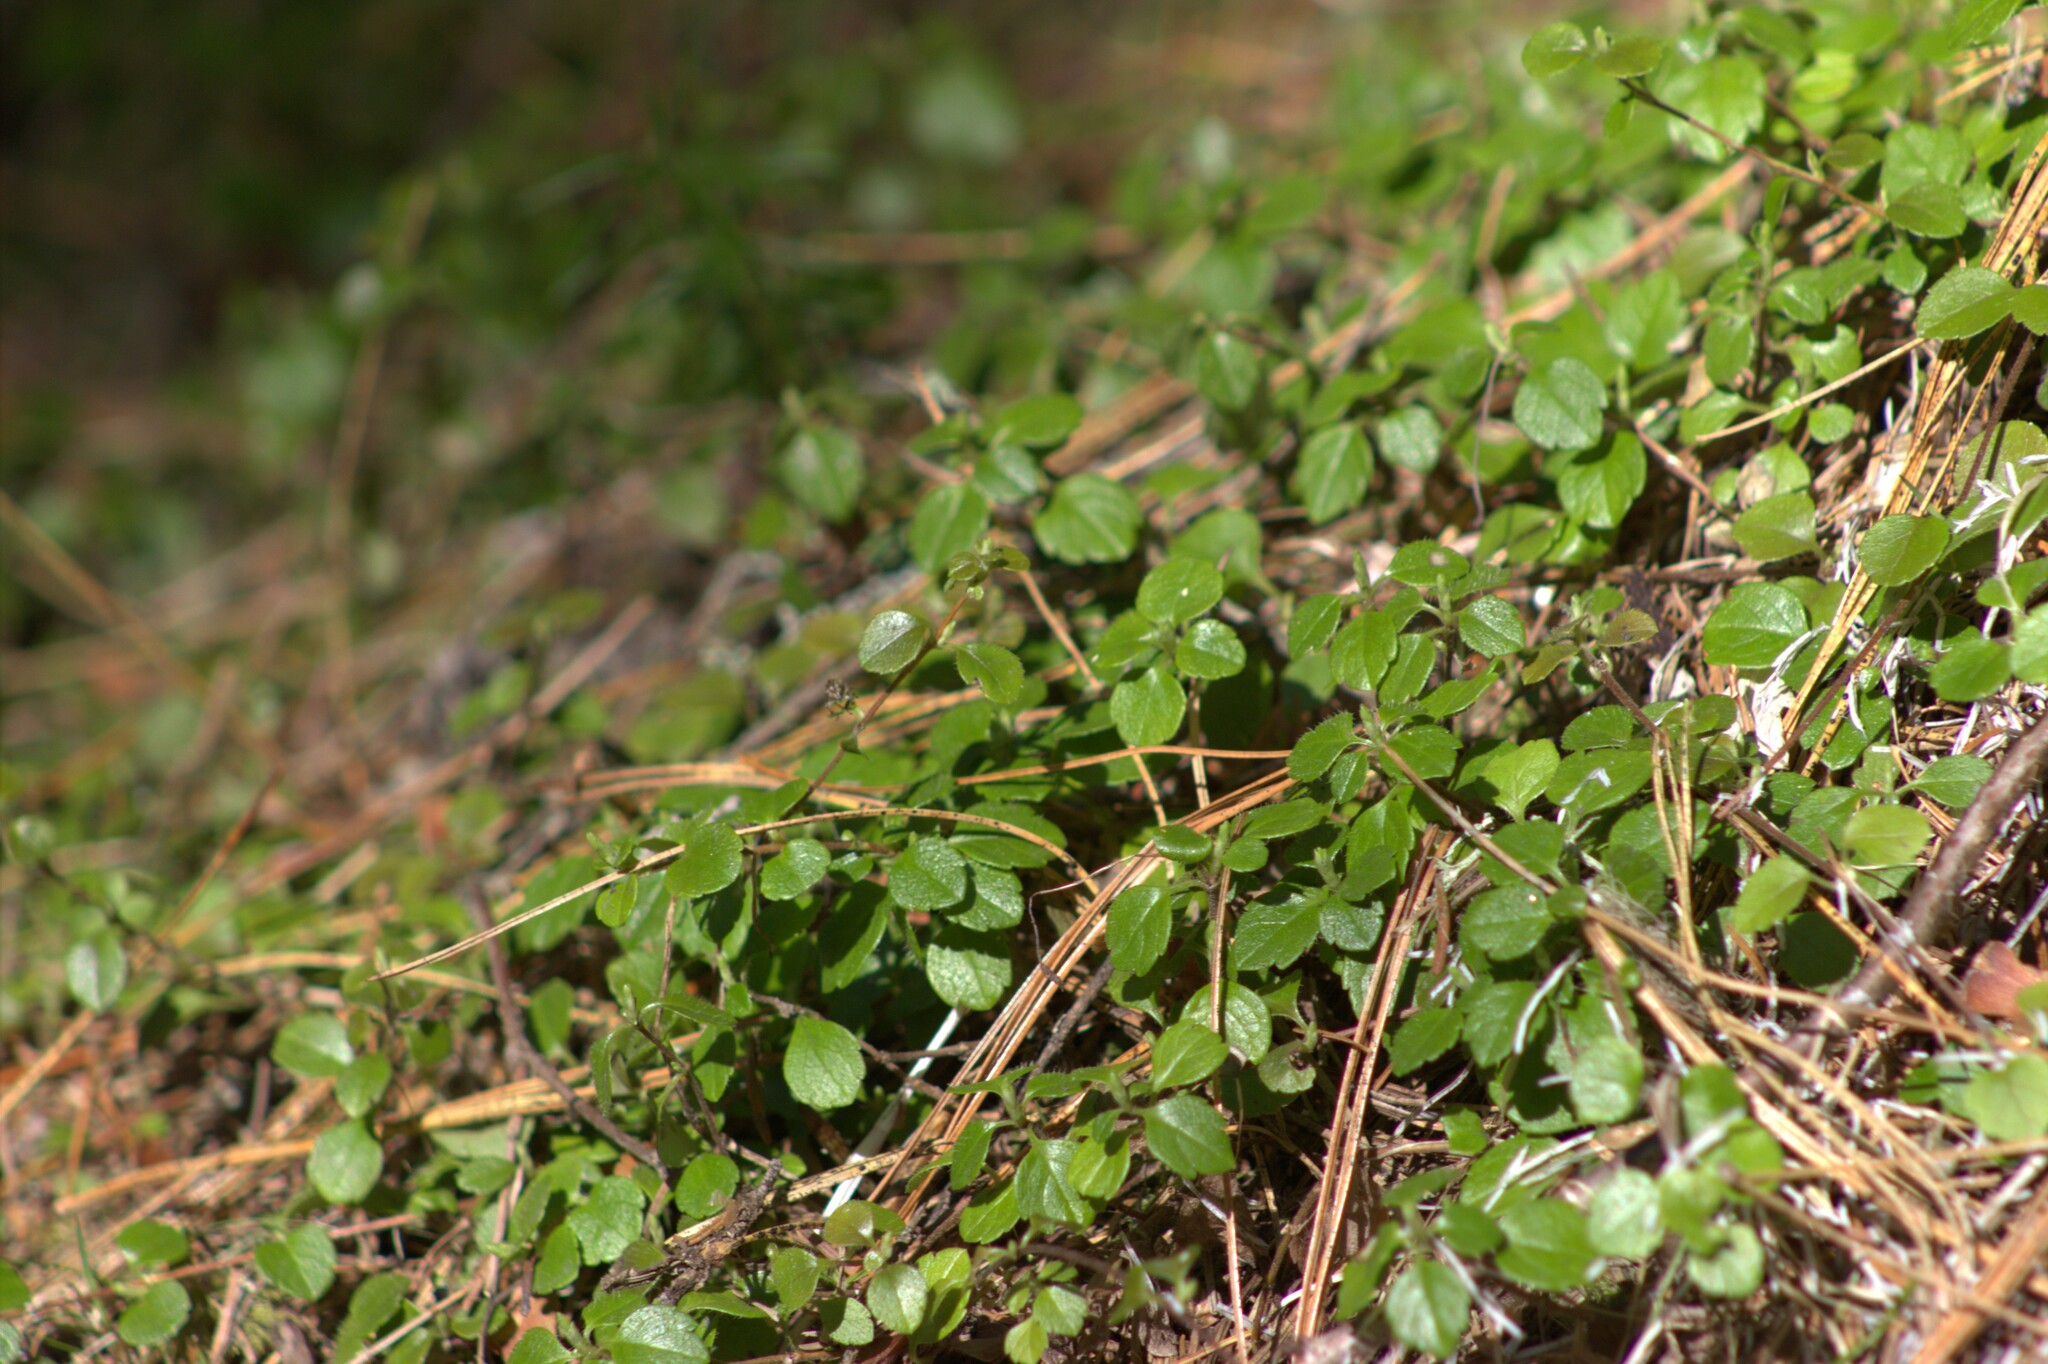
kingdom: Plantae
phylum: Tracheophyta
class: Magnoliopsida
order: Dipsacales
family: Caprifoliaceae
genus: Linnaea
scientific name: Linnaea borealis
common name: Twinflower
